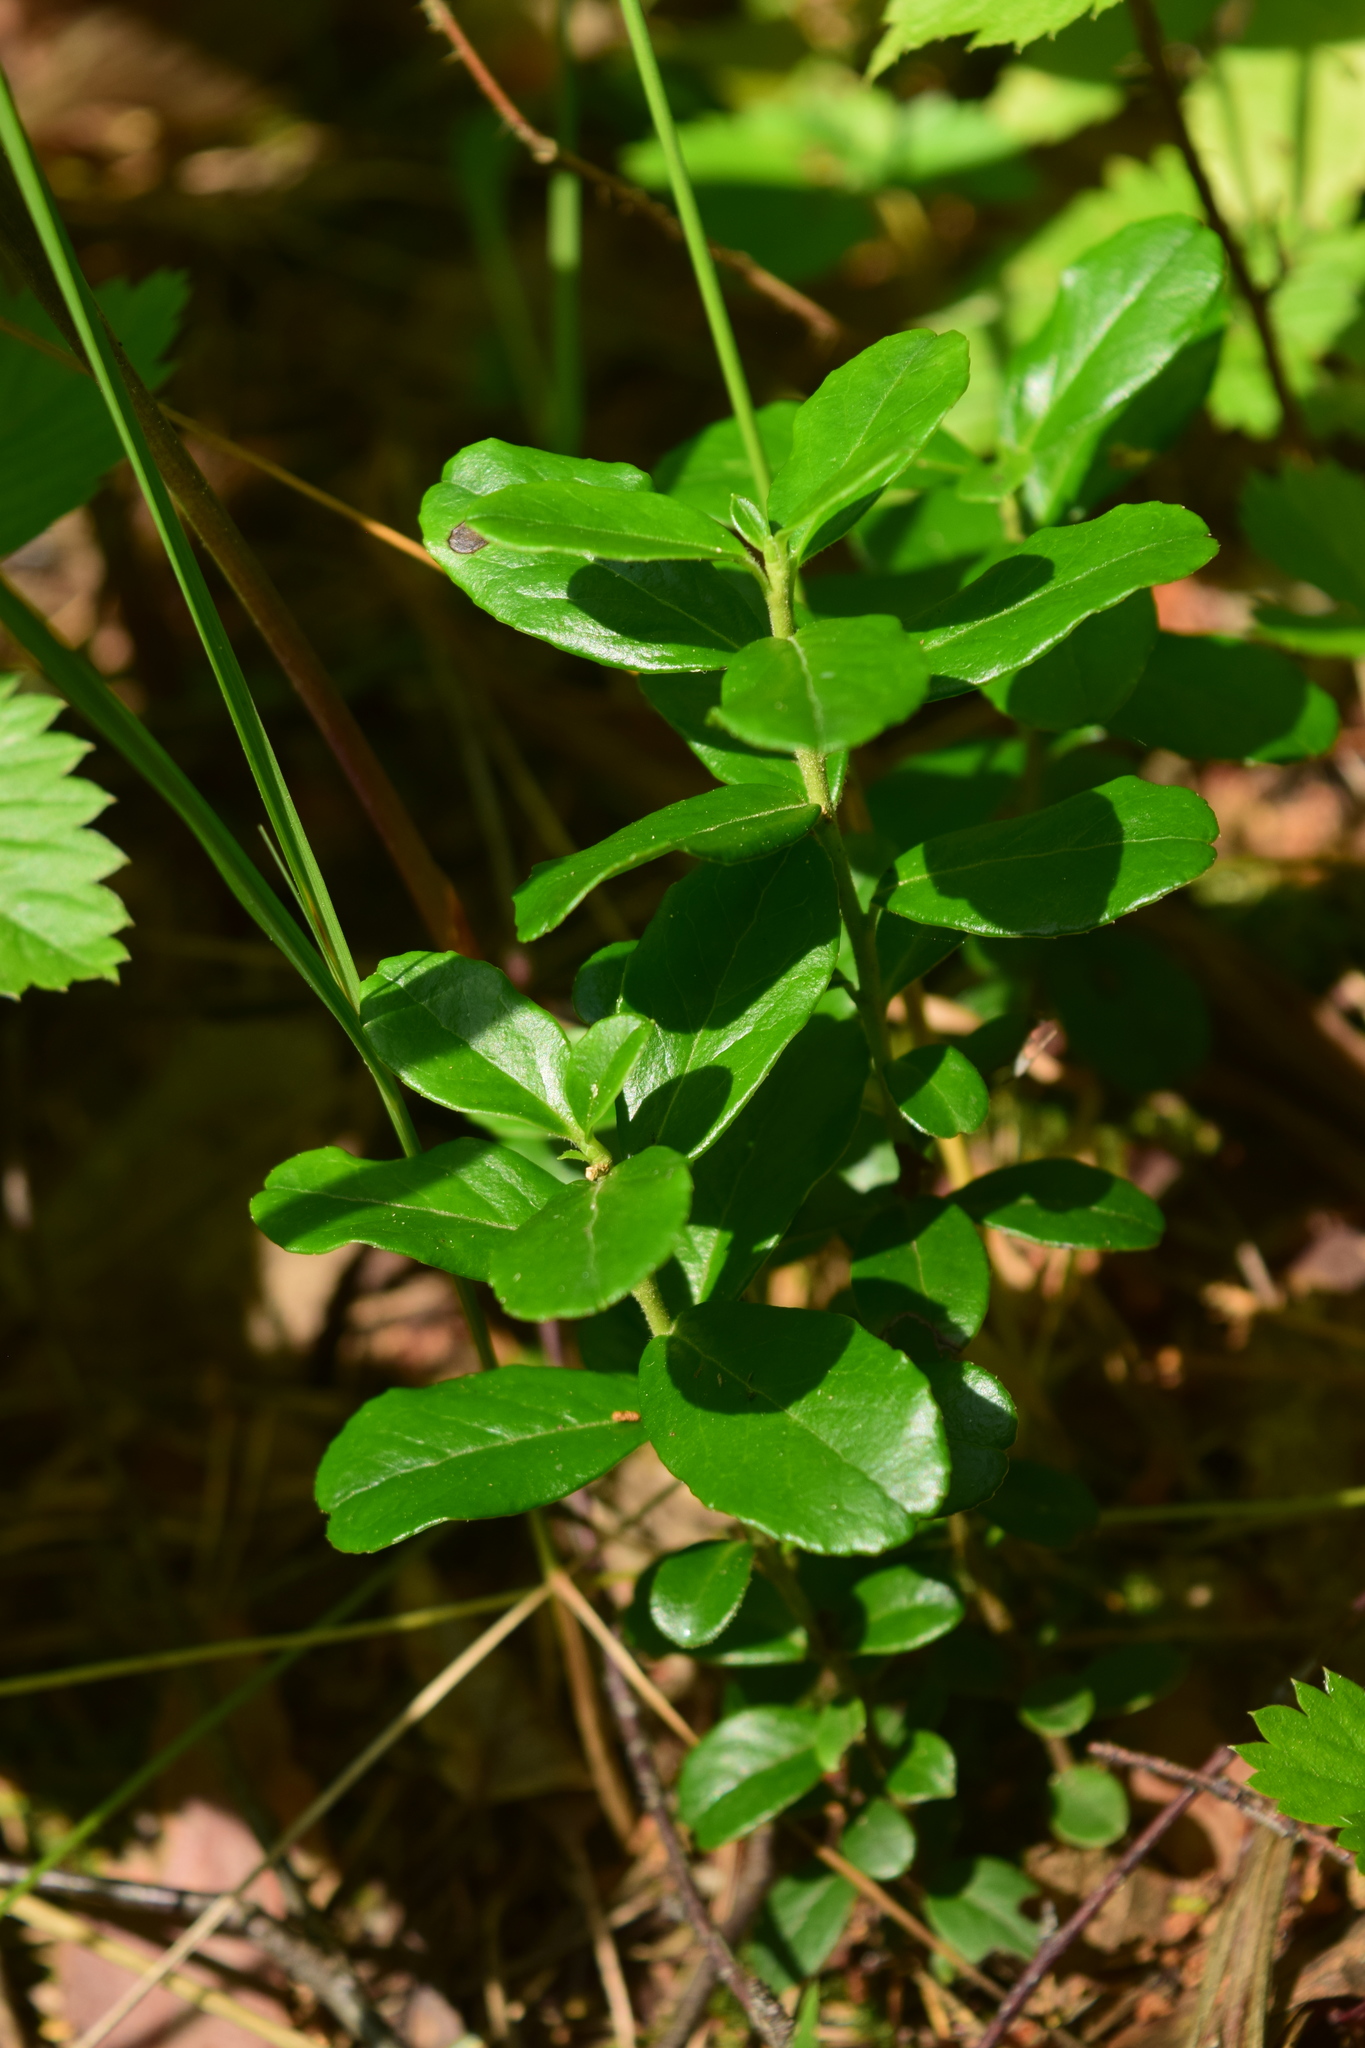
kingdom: Plantae
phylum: Tracheophyta
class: Magnoliopsida
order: Ericales
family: Ericaceae
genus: Vaccinium
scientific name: Vaccinium vitis-idaea
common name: Cowberry
